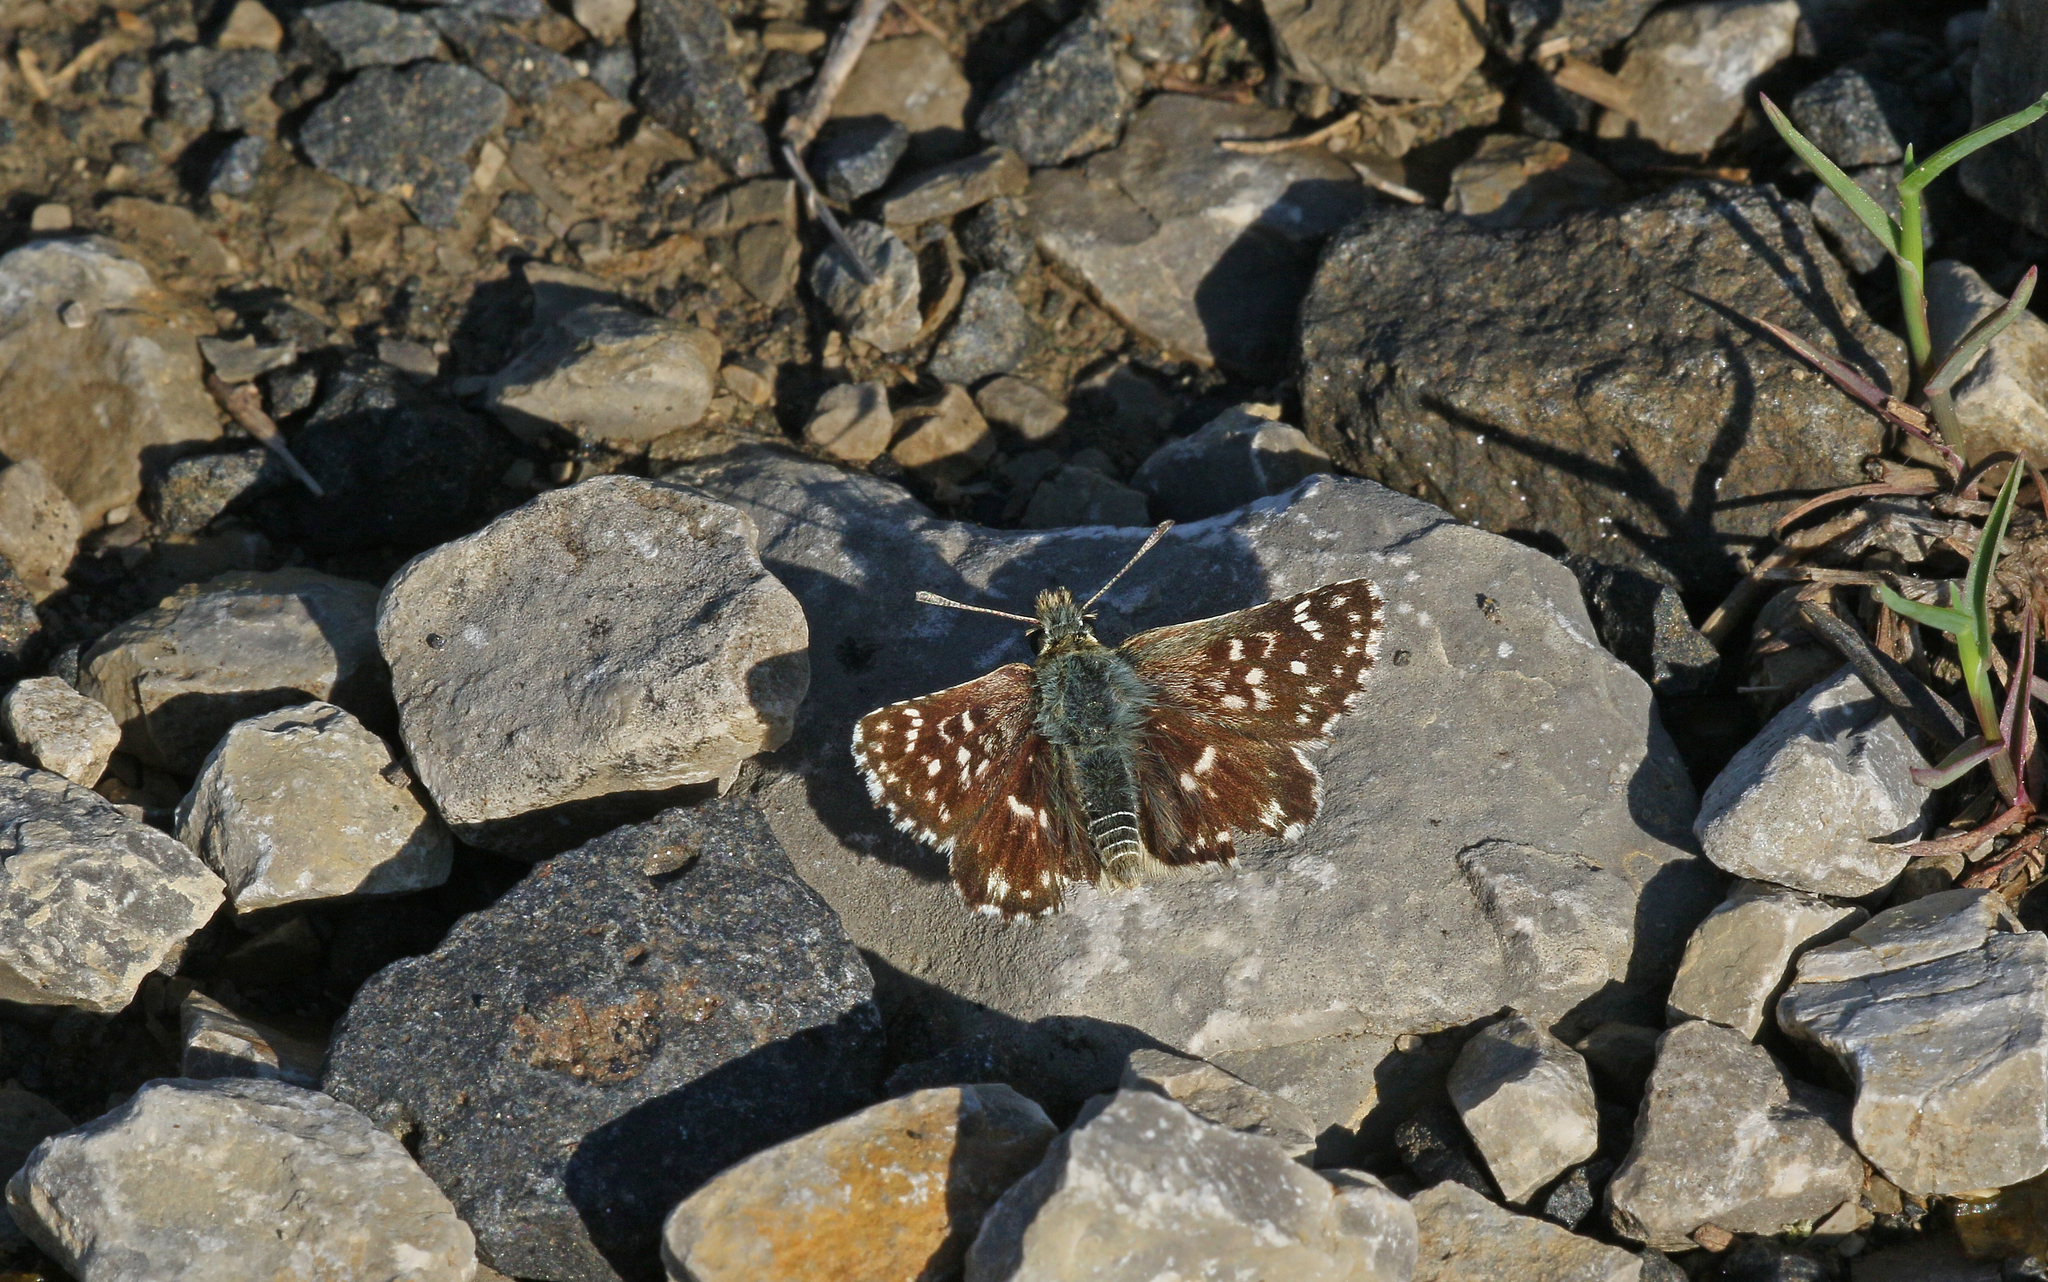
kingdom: Animalia
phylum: Arthropoda
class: Insecta
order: Lepidoptera
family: Hesperiidae
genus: Spialia
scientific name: Spialia sertorius
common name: Red underwing skipper
